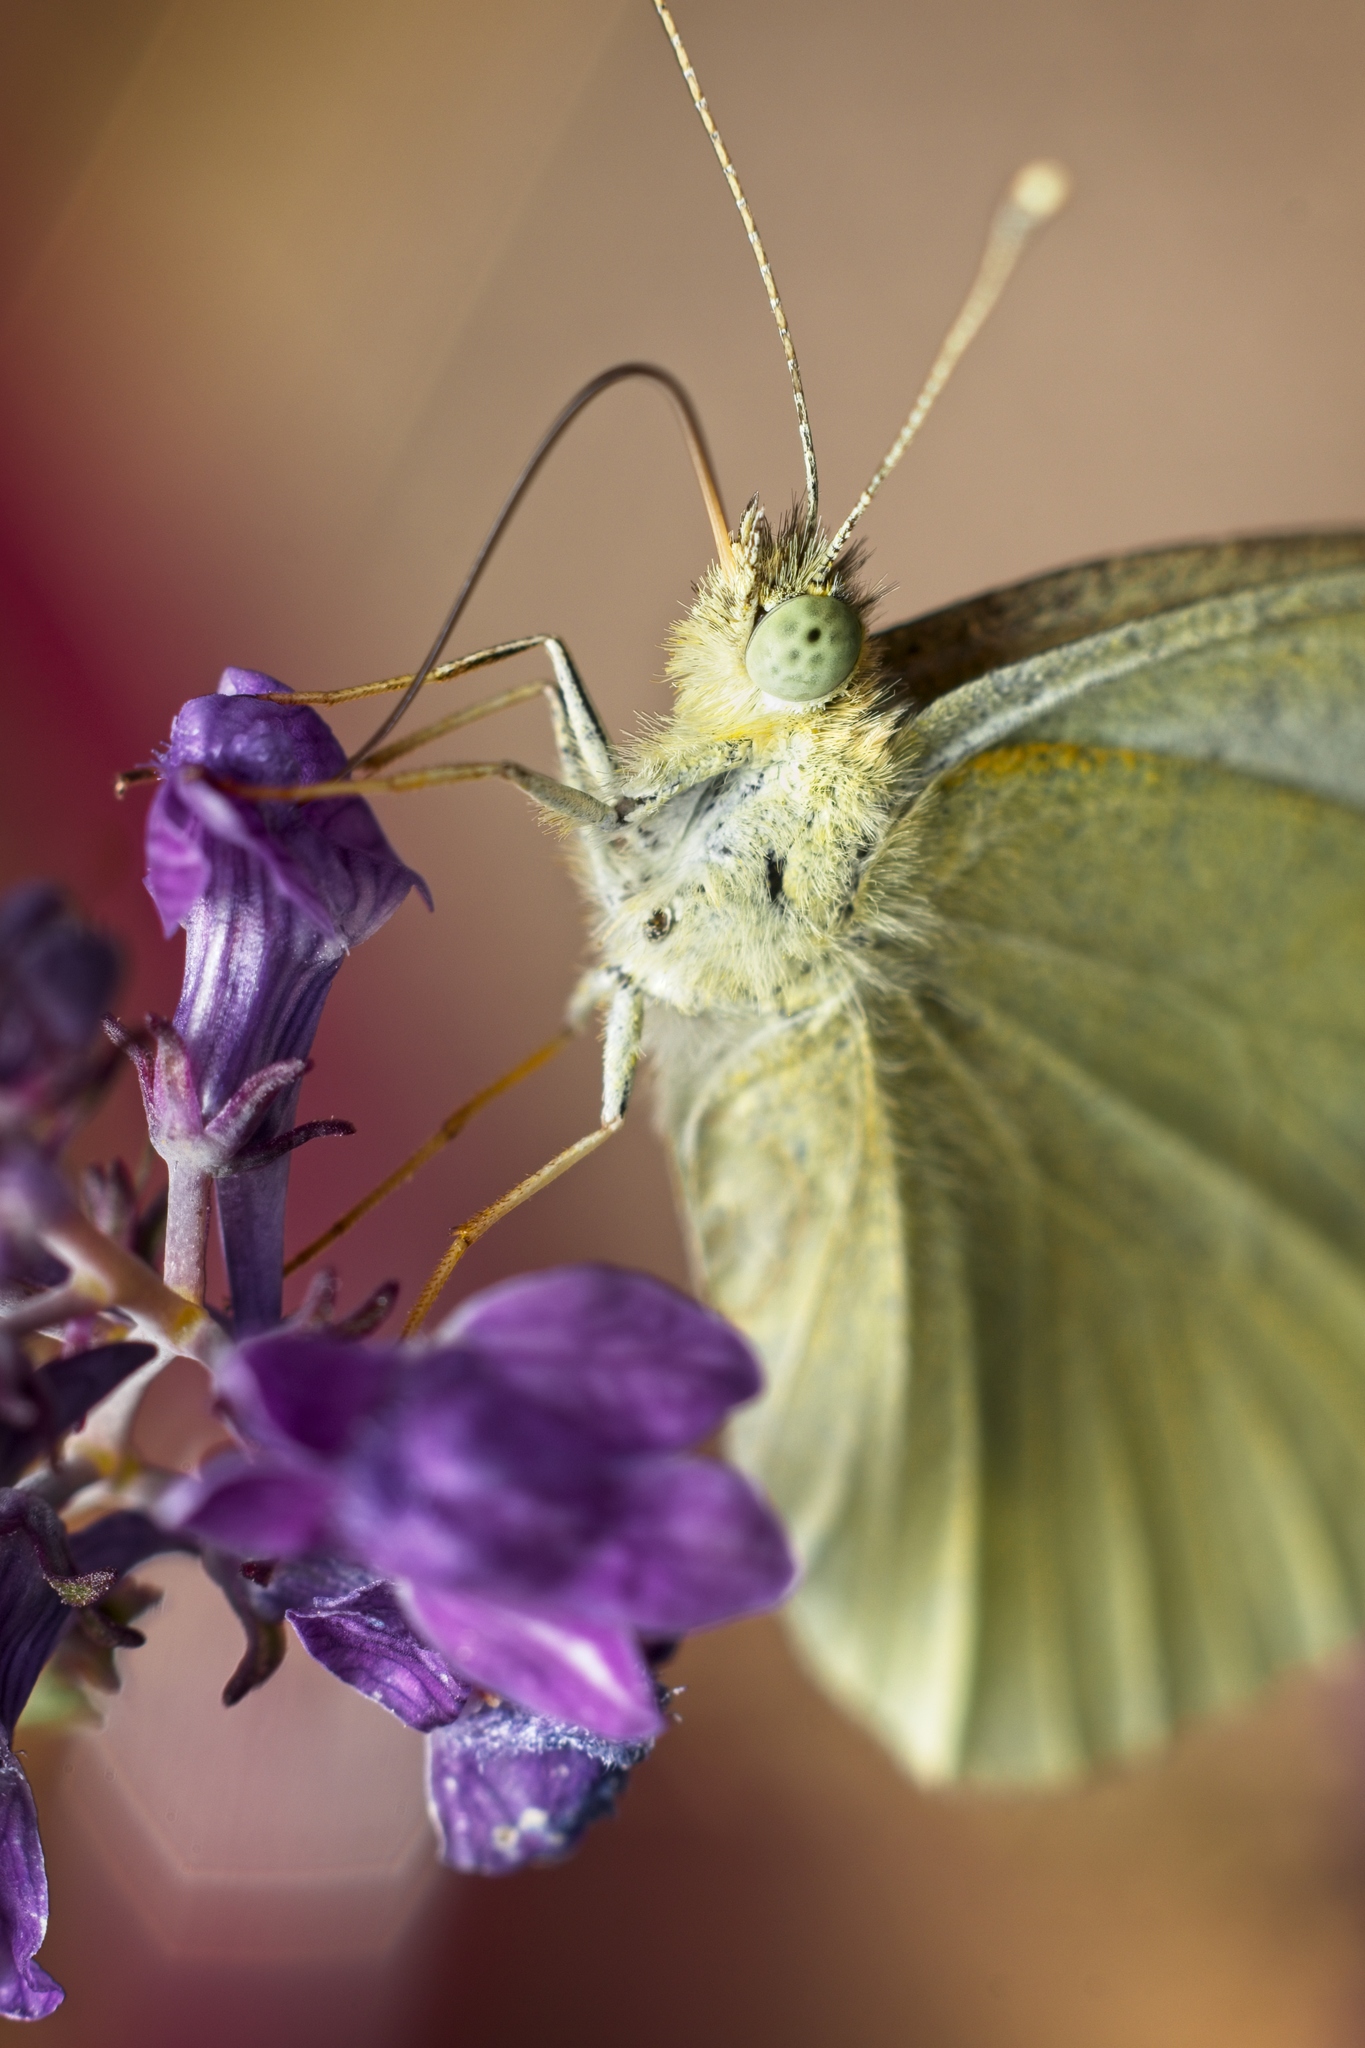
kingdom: Animalia
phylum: Arthropoda
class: Insecta
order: Lepidoptera
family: Pieridae
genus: Pieris
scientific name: Pieris rapae
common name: Small white
